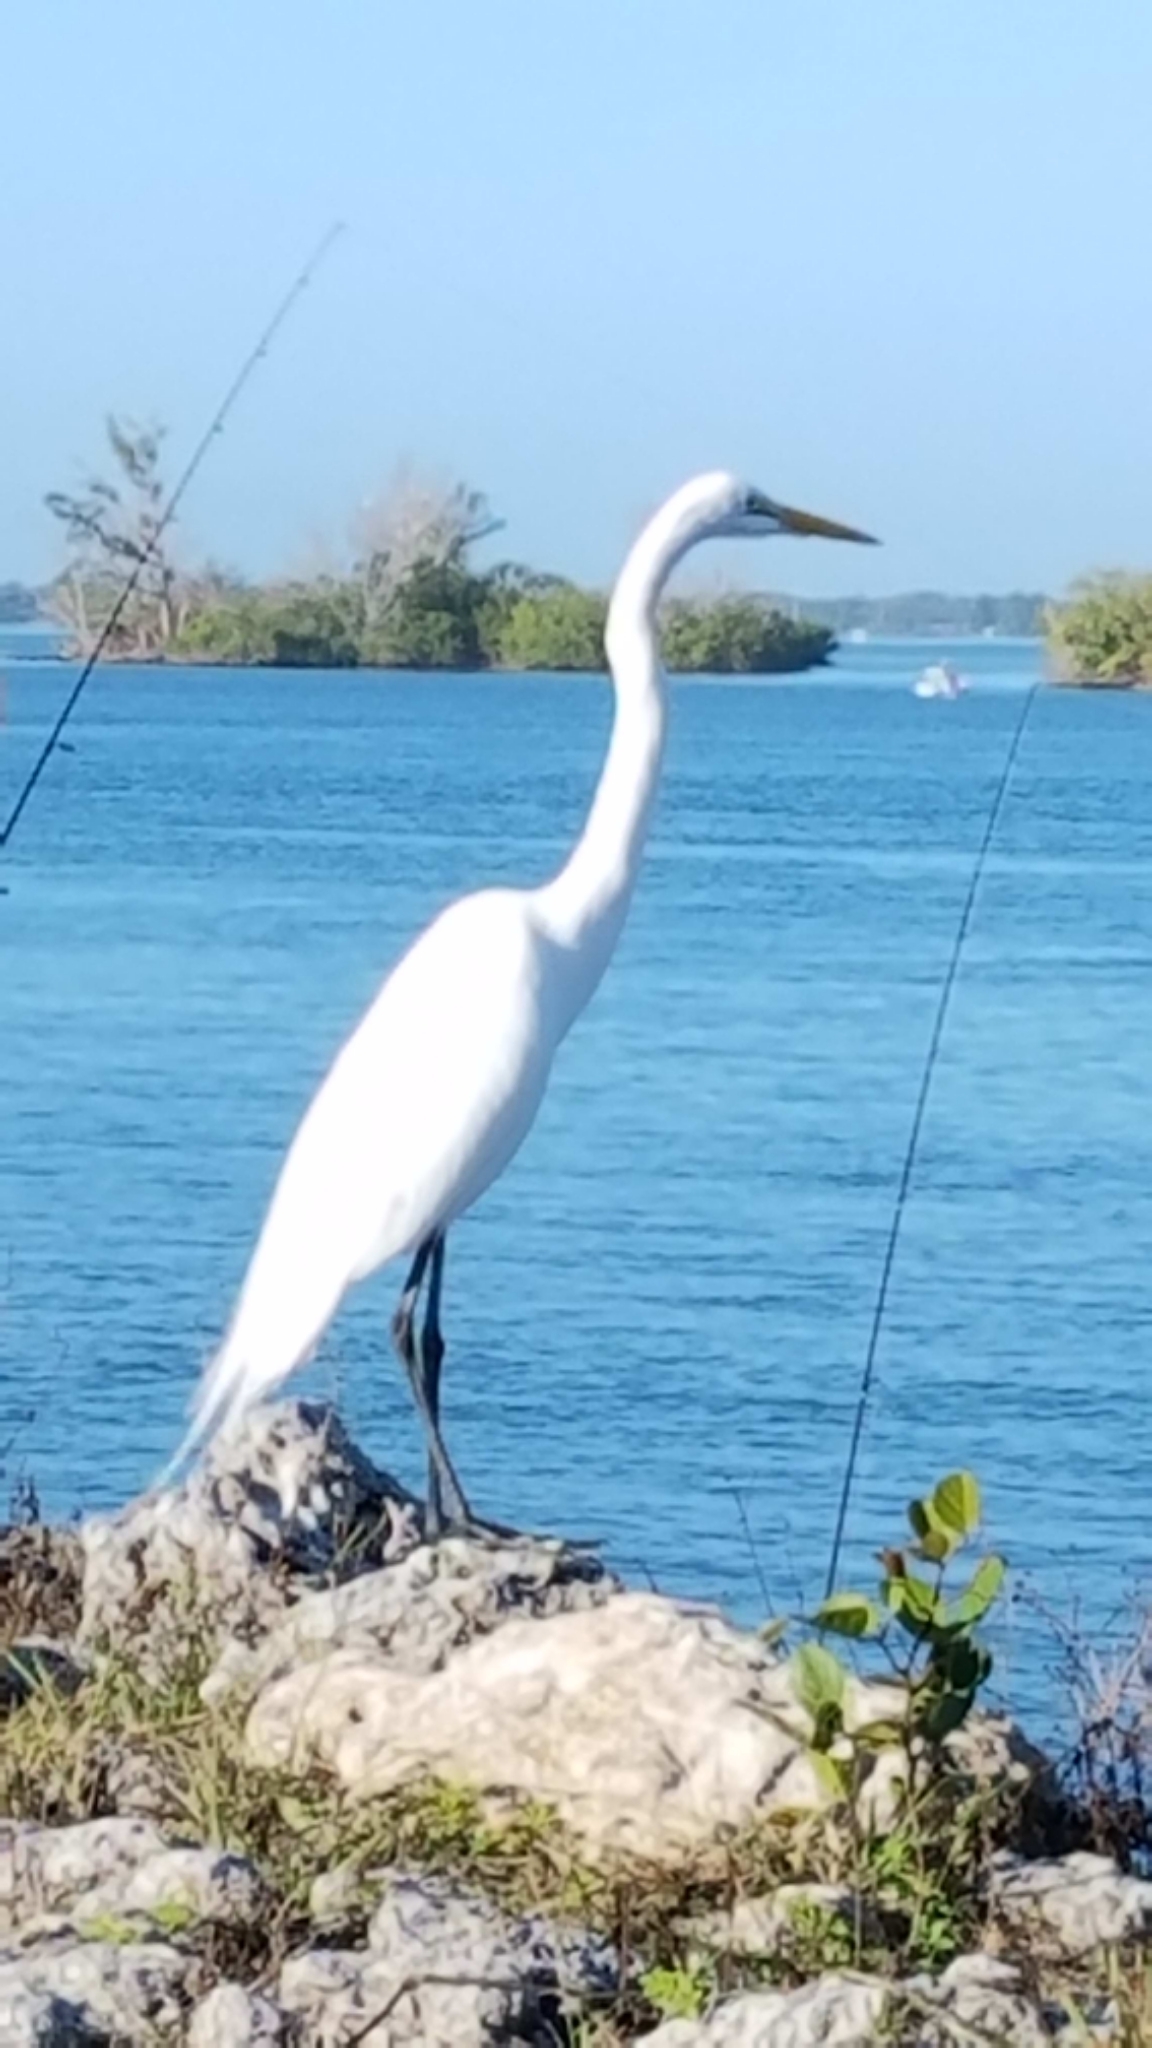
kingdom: Animalia
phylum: Chordata
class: Aves
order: Pelecaniformes
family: Ardeidae
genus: Ardea
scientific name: Ardea alba
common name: Great egret
